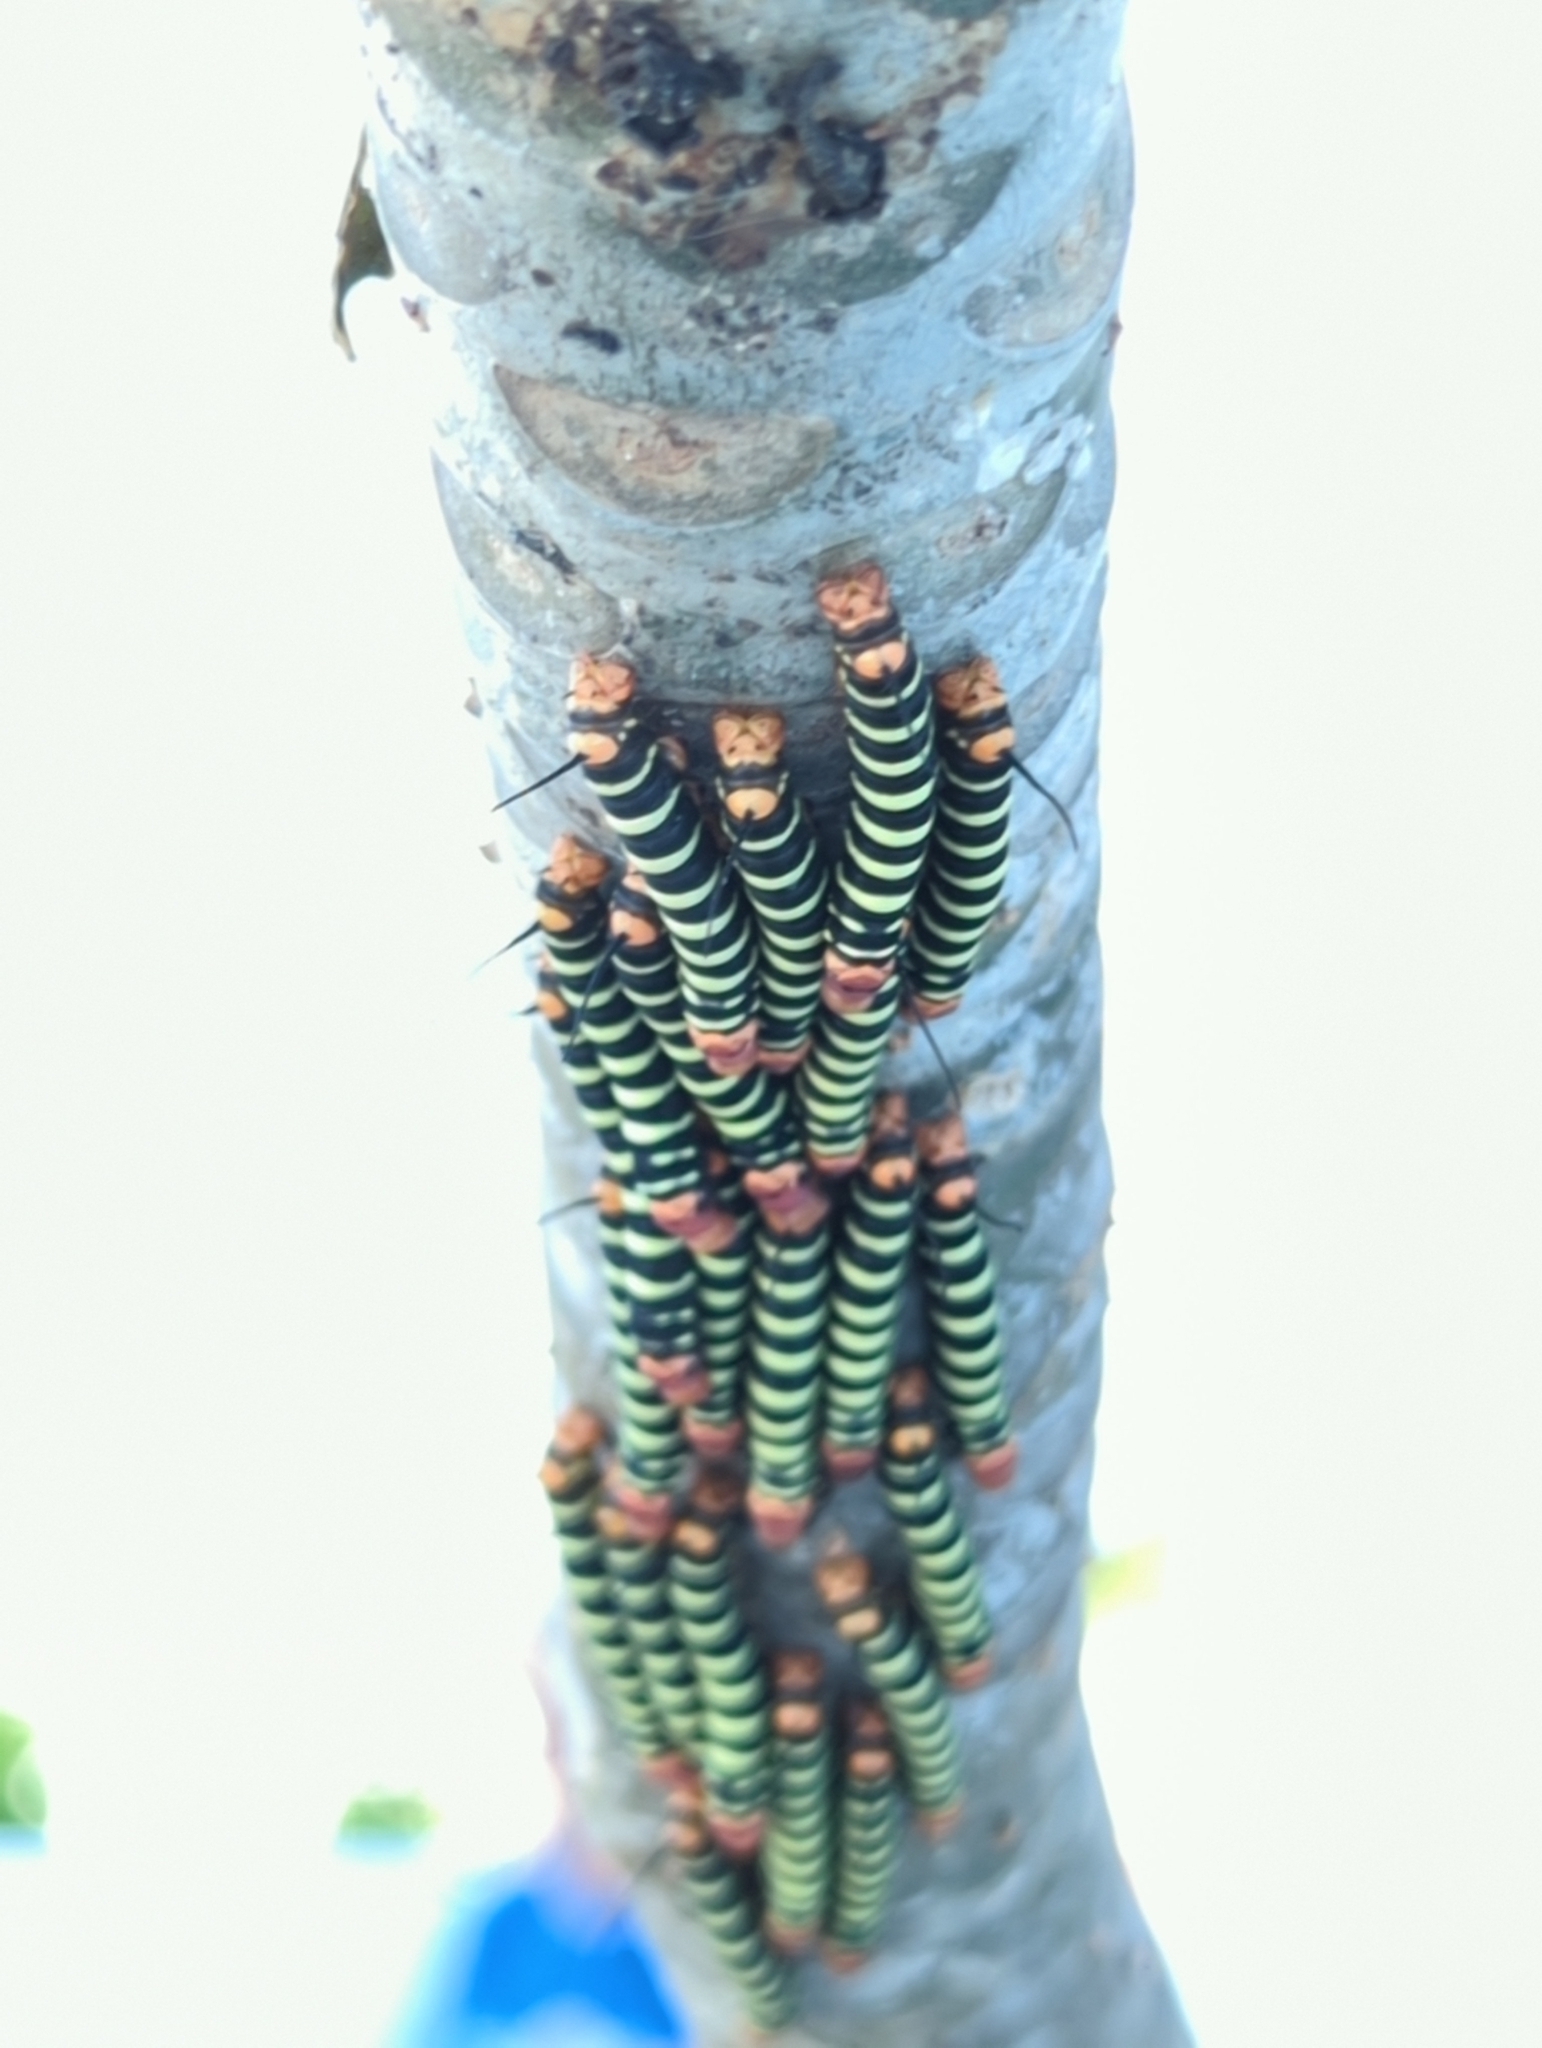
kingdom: Animalia
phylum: Arthropoda
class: Insecta
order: Lepidoptera
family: Sphingidae
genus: Pseudosphinx
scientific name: Pseudosphinx tetrio
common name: Tetrio sphinx
